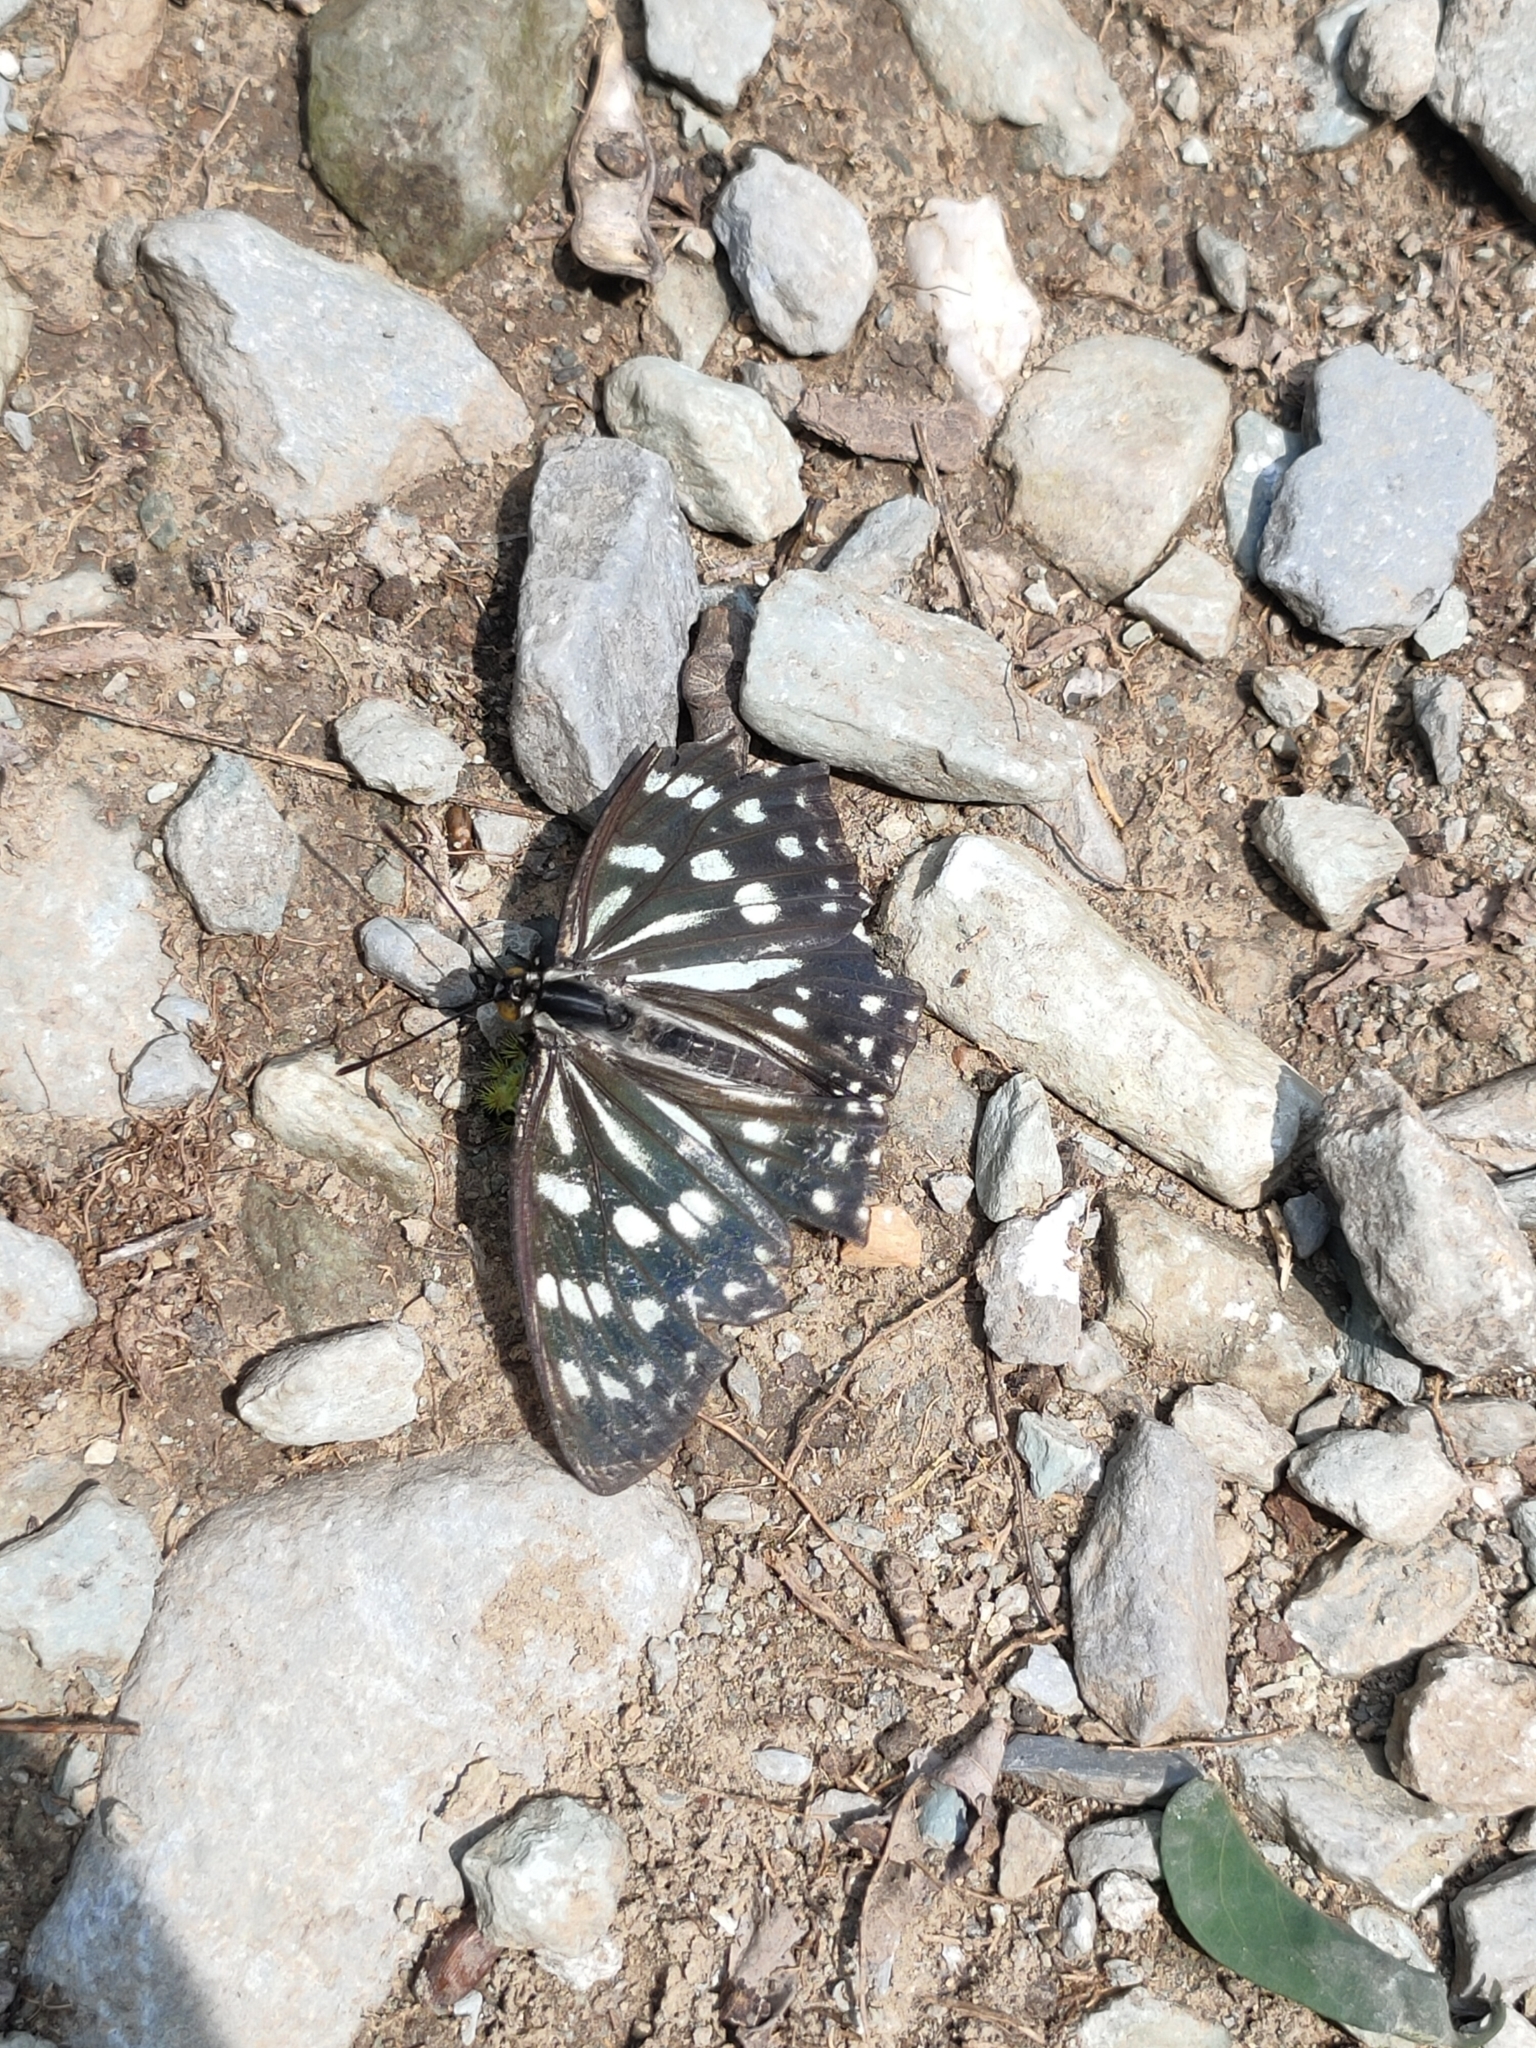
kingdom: Animalia
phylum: Arthropoda
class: Insecta
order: Lepidoptera
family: Nymphalidae
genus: Hestina
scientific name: Hestina persimilis
